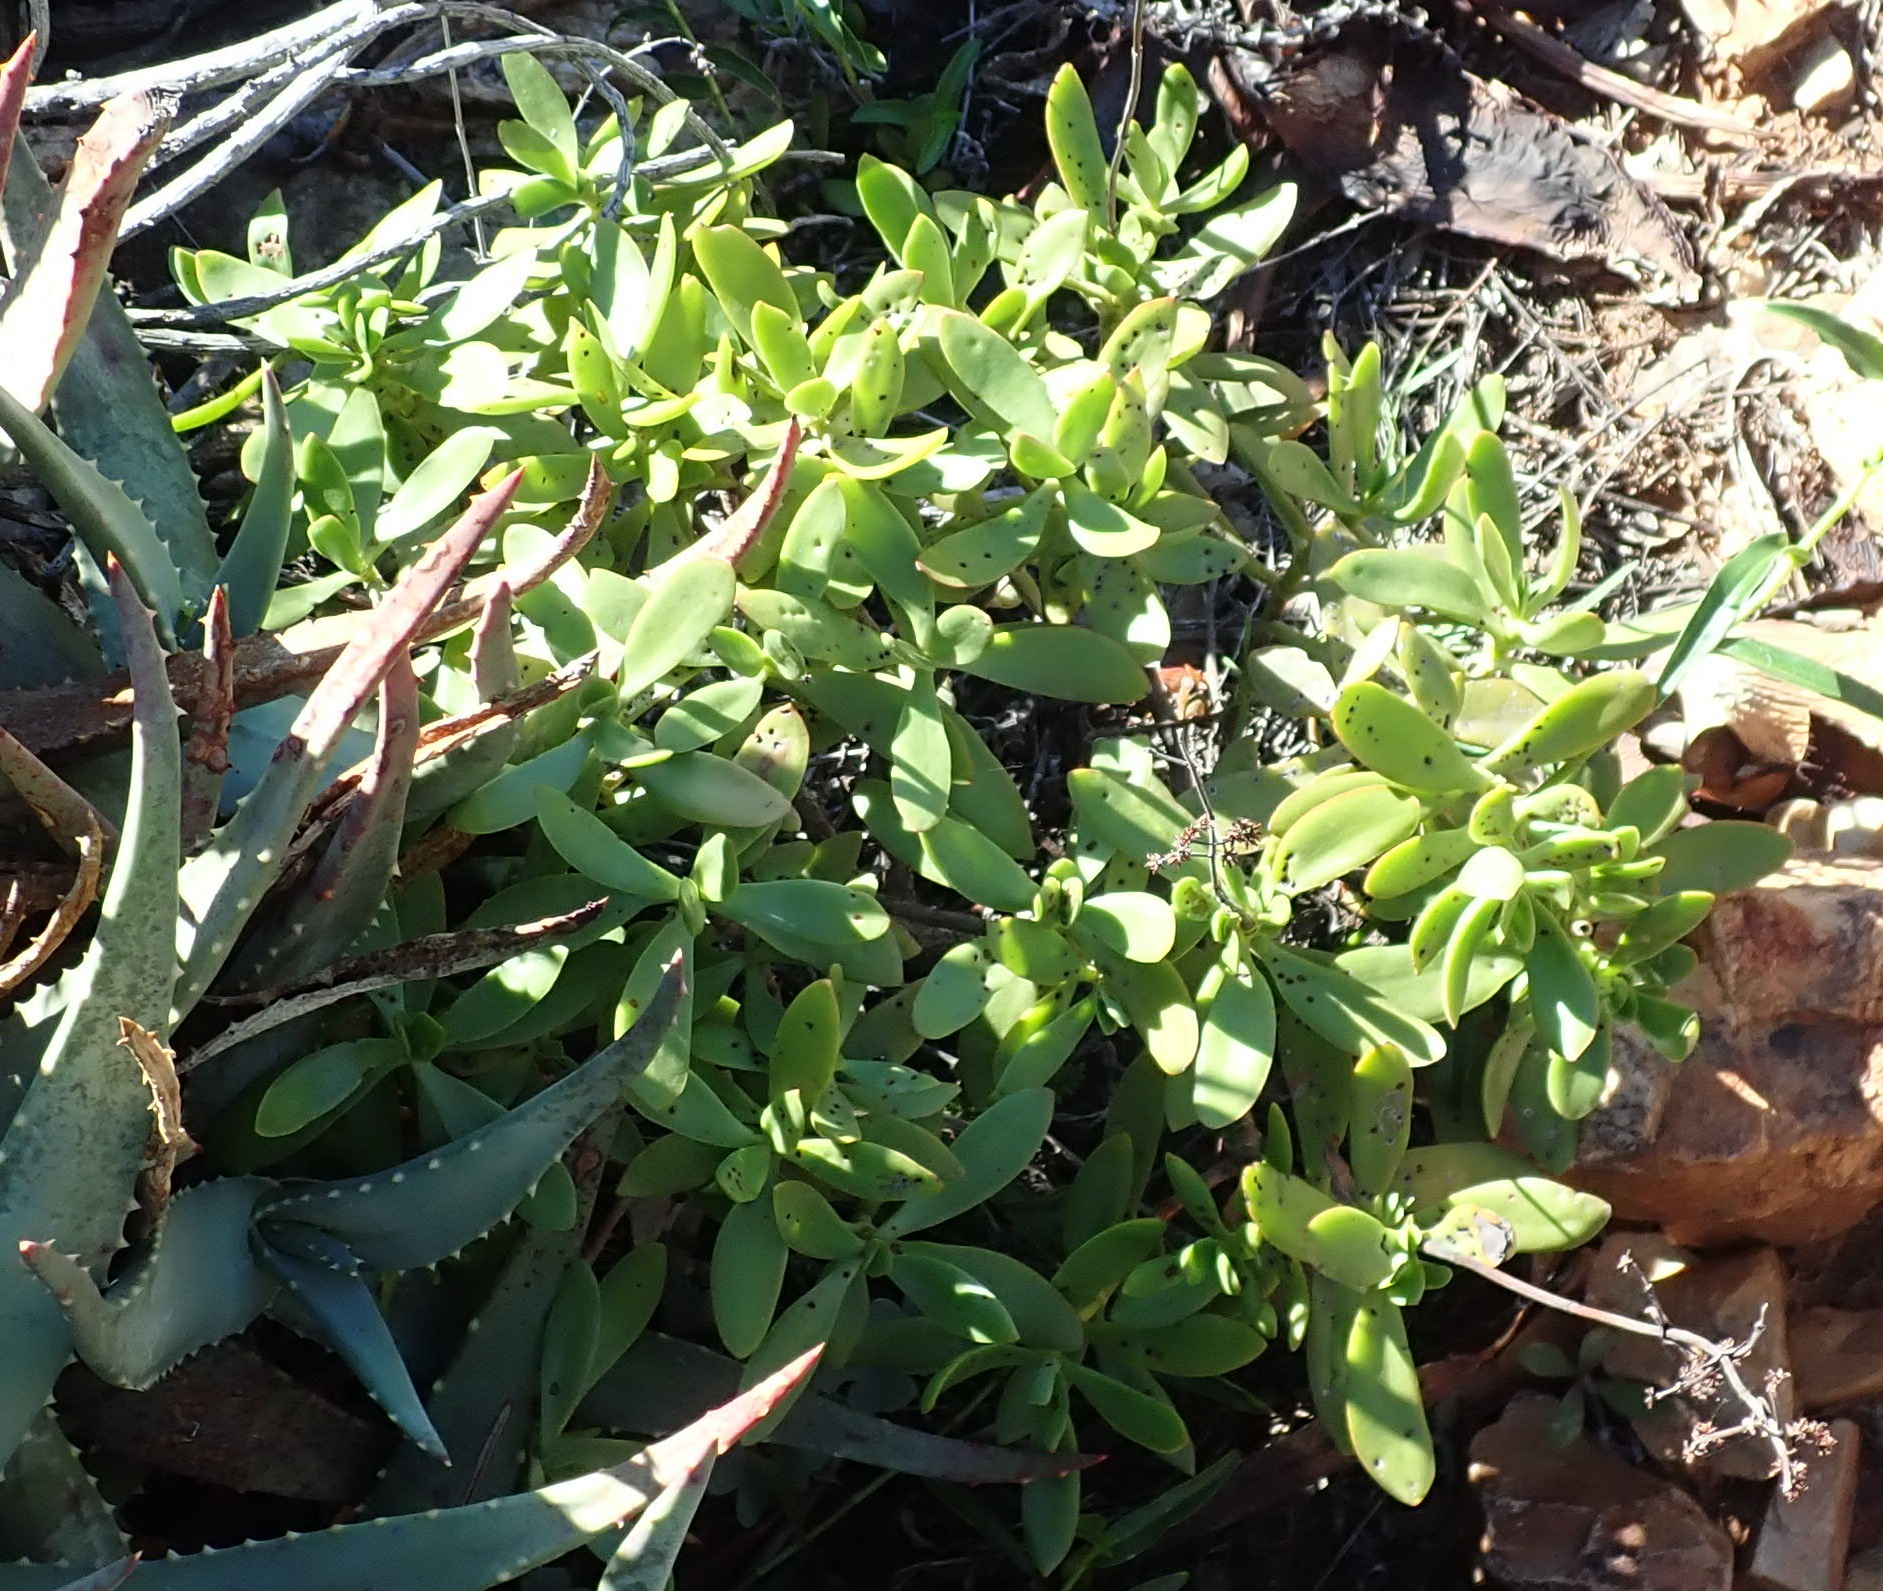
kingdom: Plantae
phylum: Tracheophyta
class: Magnoliopsida
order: Saxifragales
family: Crassulaceae
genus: Crassula
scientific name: Crassula cultrata
